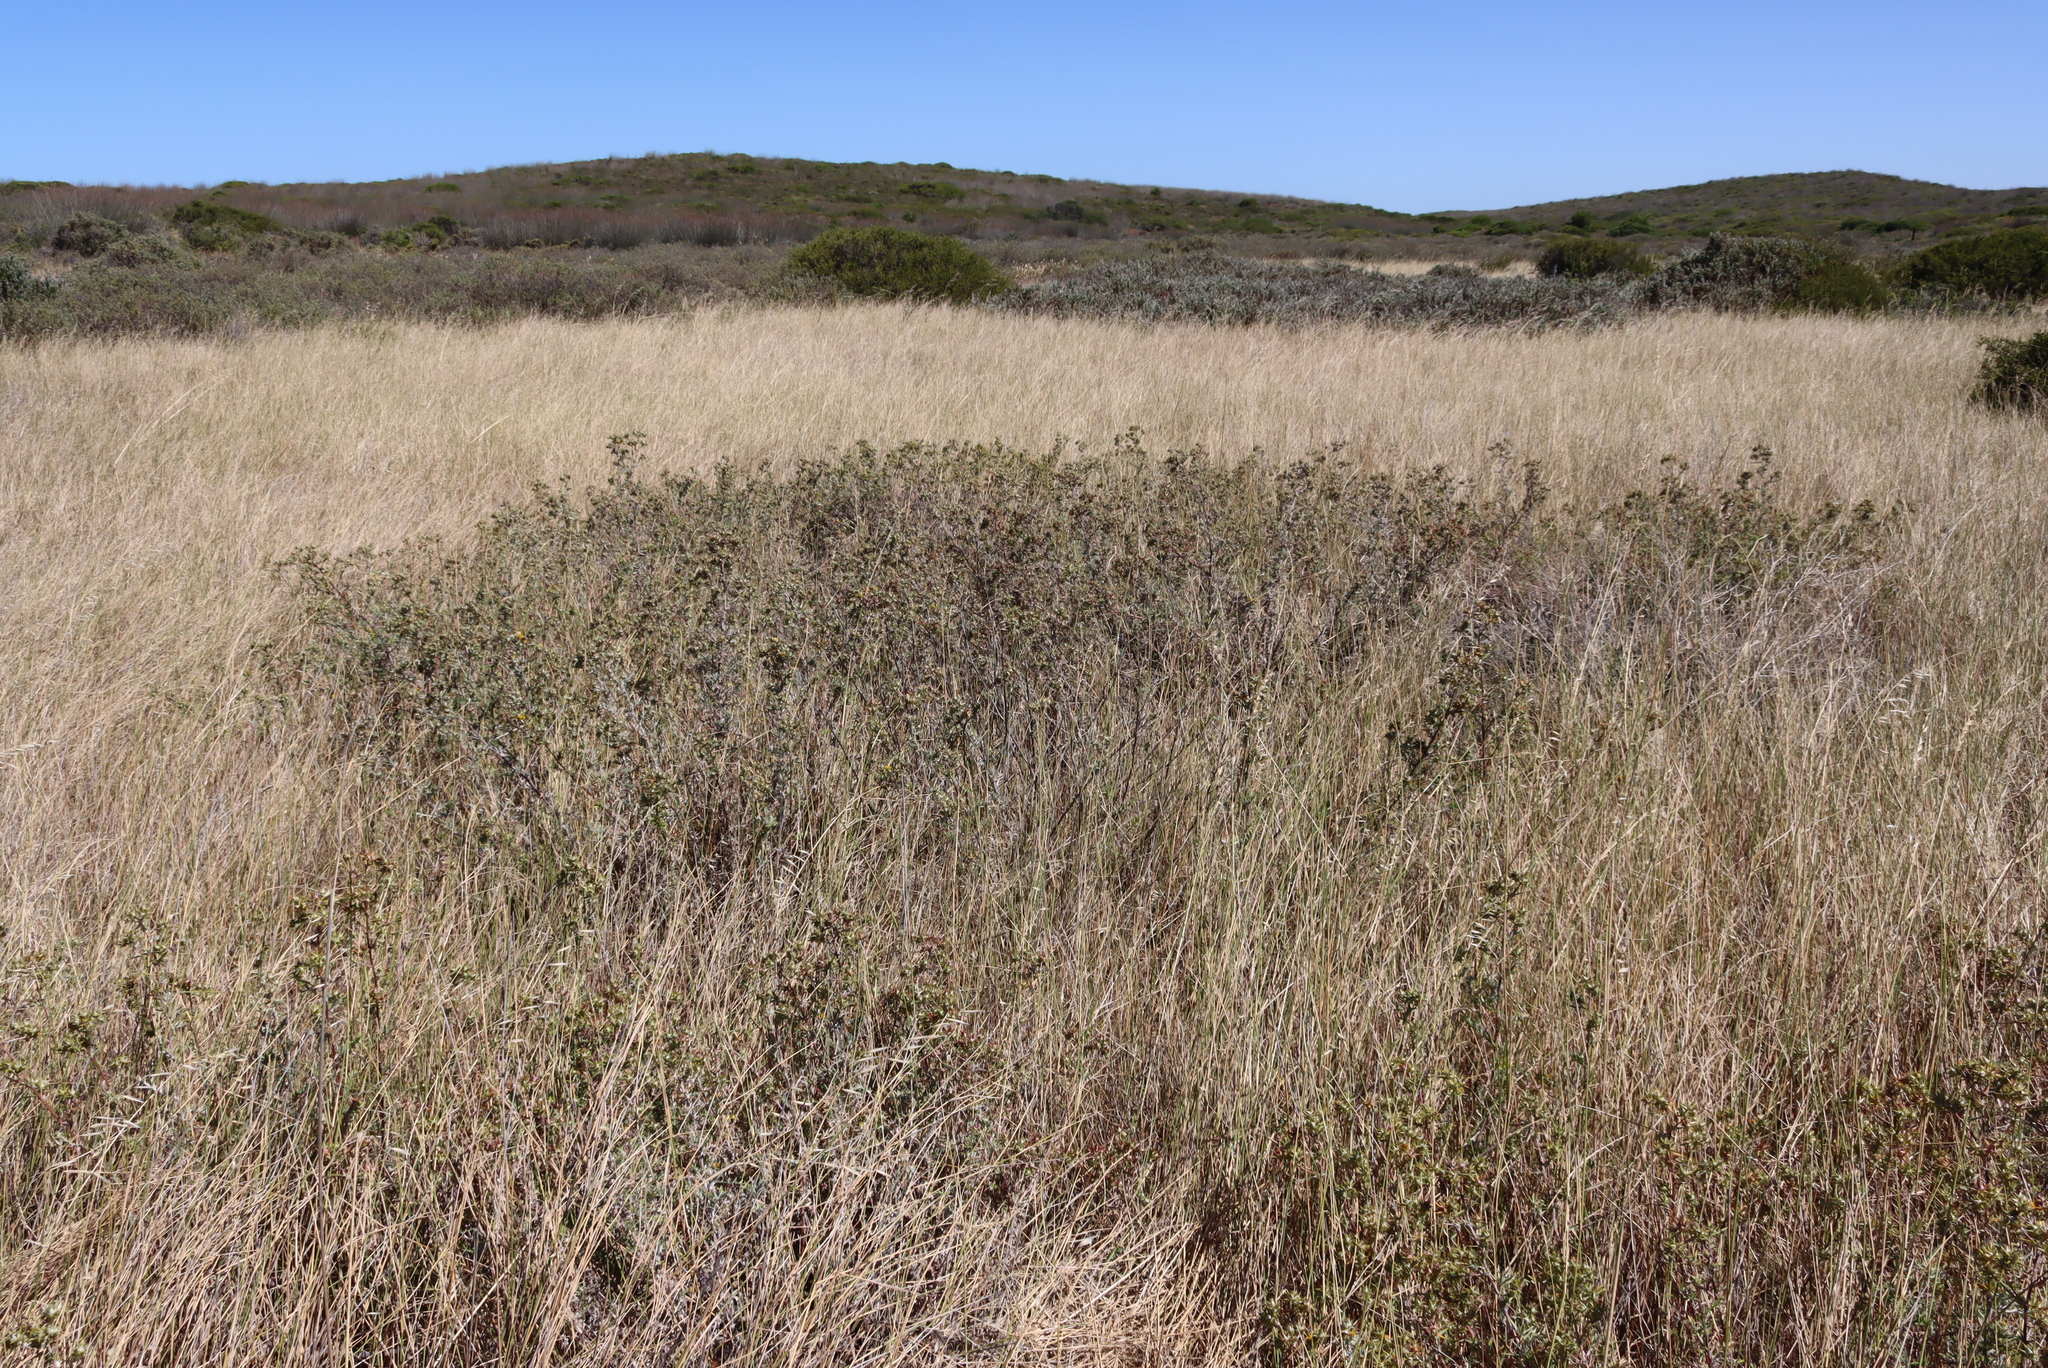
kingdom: Plantae
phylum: Tracheophyta
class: Magnoliopsida
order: Asterales
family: Asteraceae
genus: Berkheya
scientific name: Berkheya rigida
